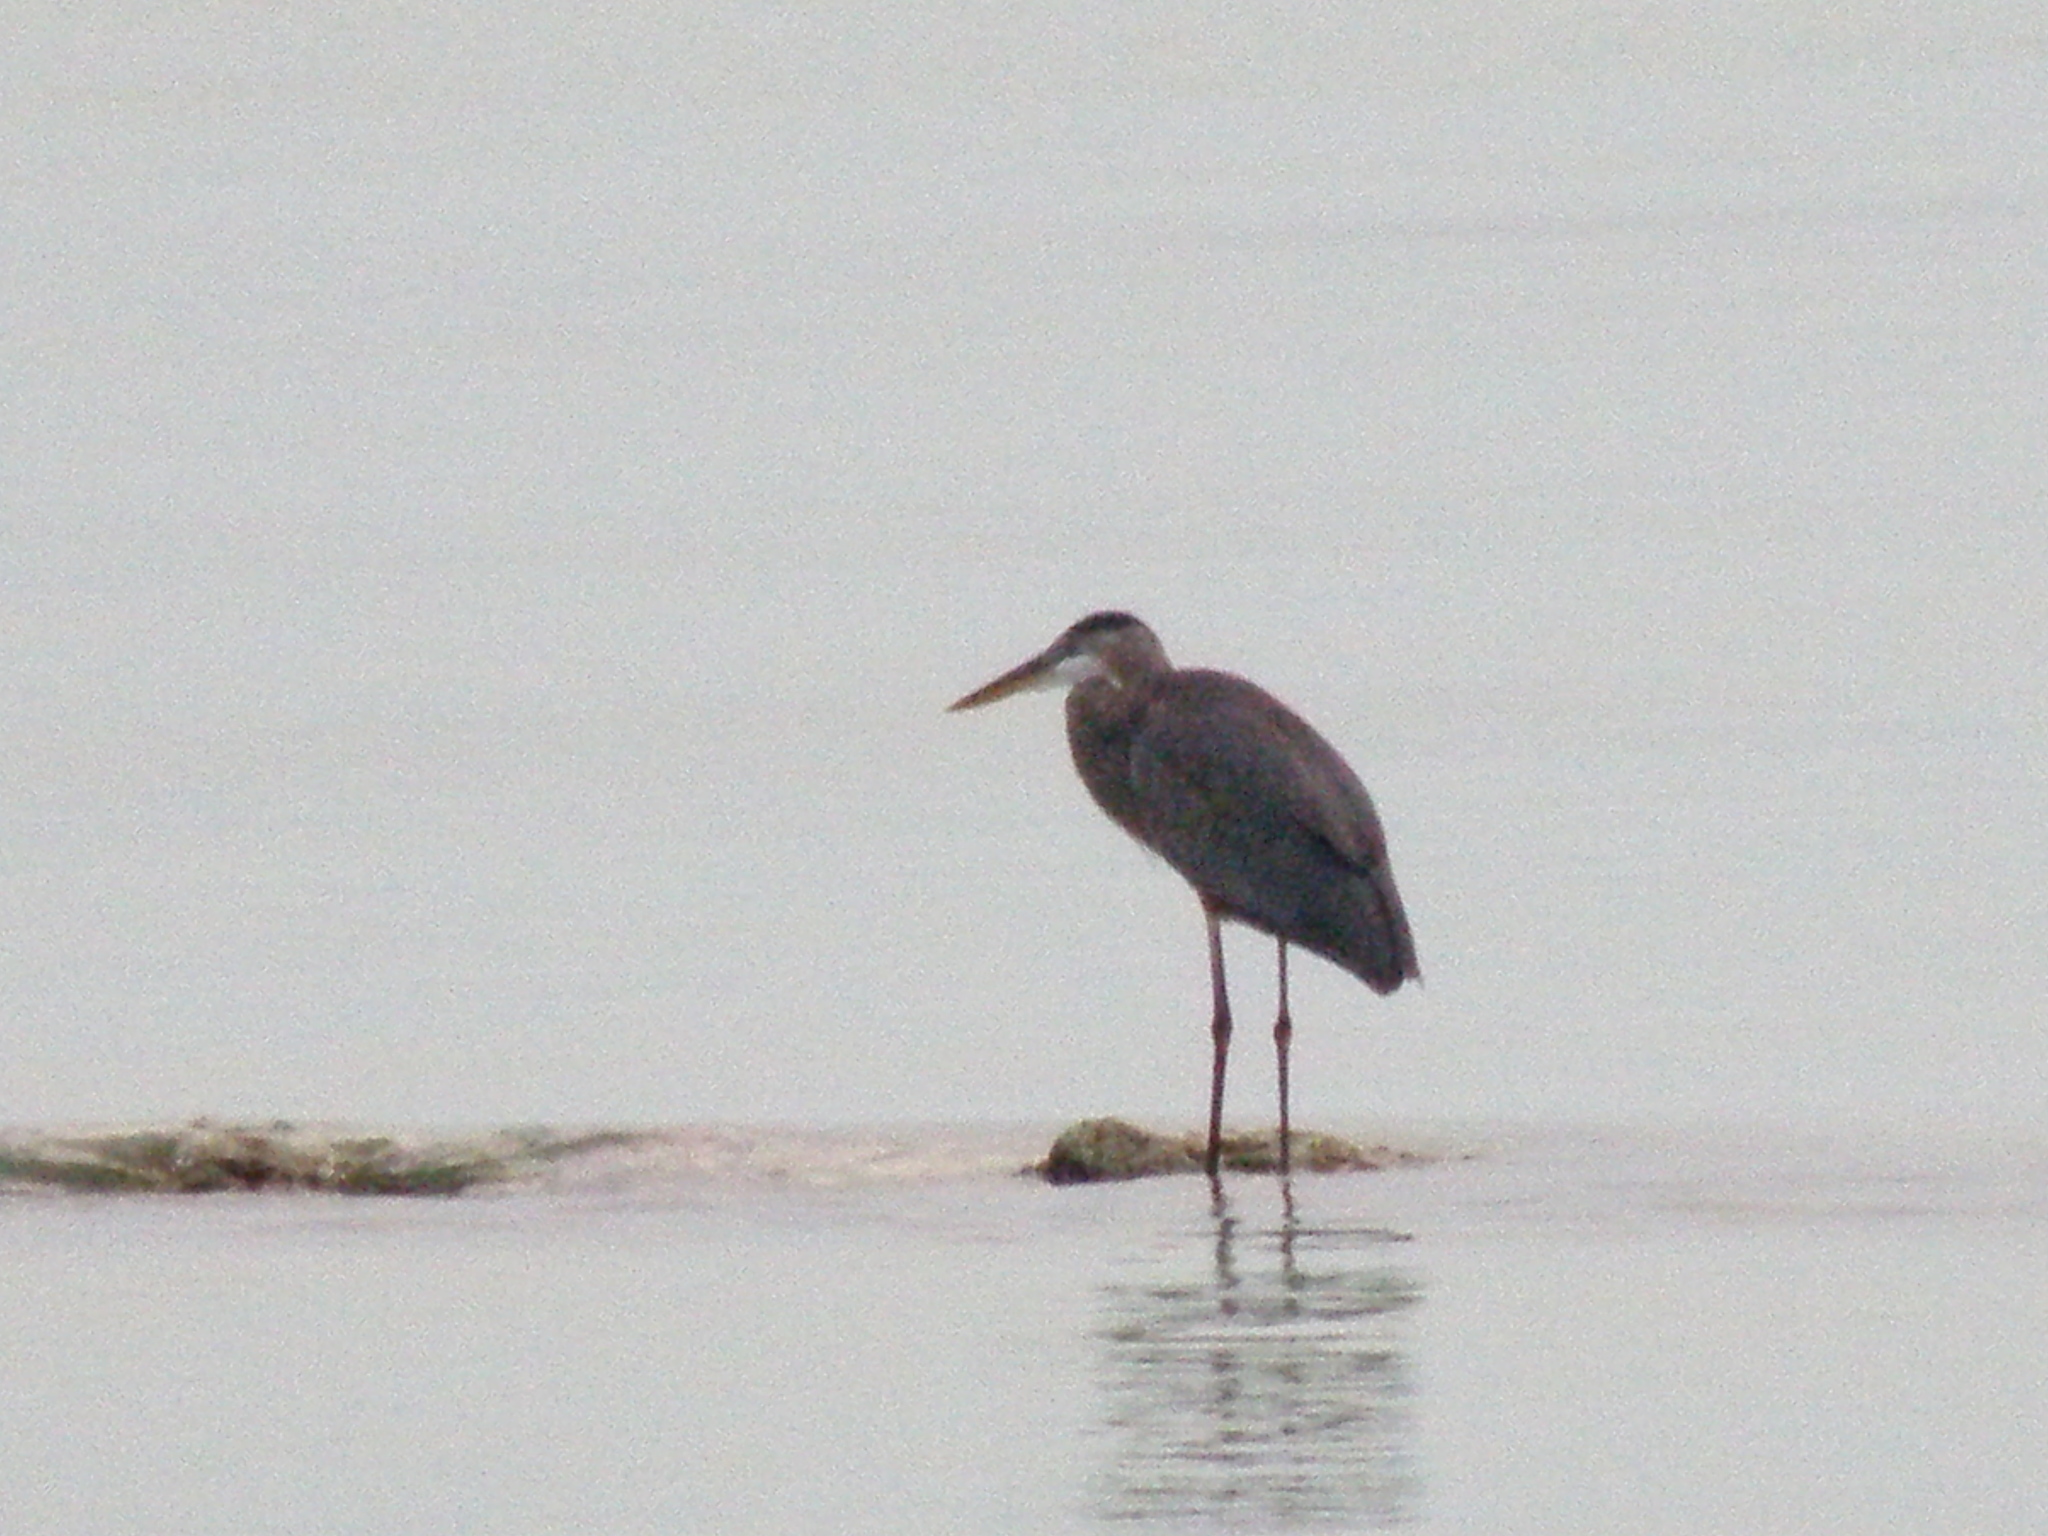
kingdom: Animalia
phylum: Chordata
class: Aves
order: Pelecaniformes
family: Ardeidae
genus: Ardea
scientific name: Ardea herodias
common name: Great blue heron
